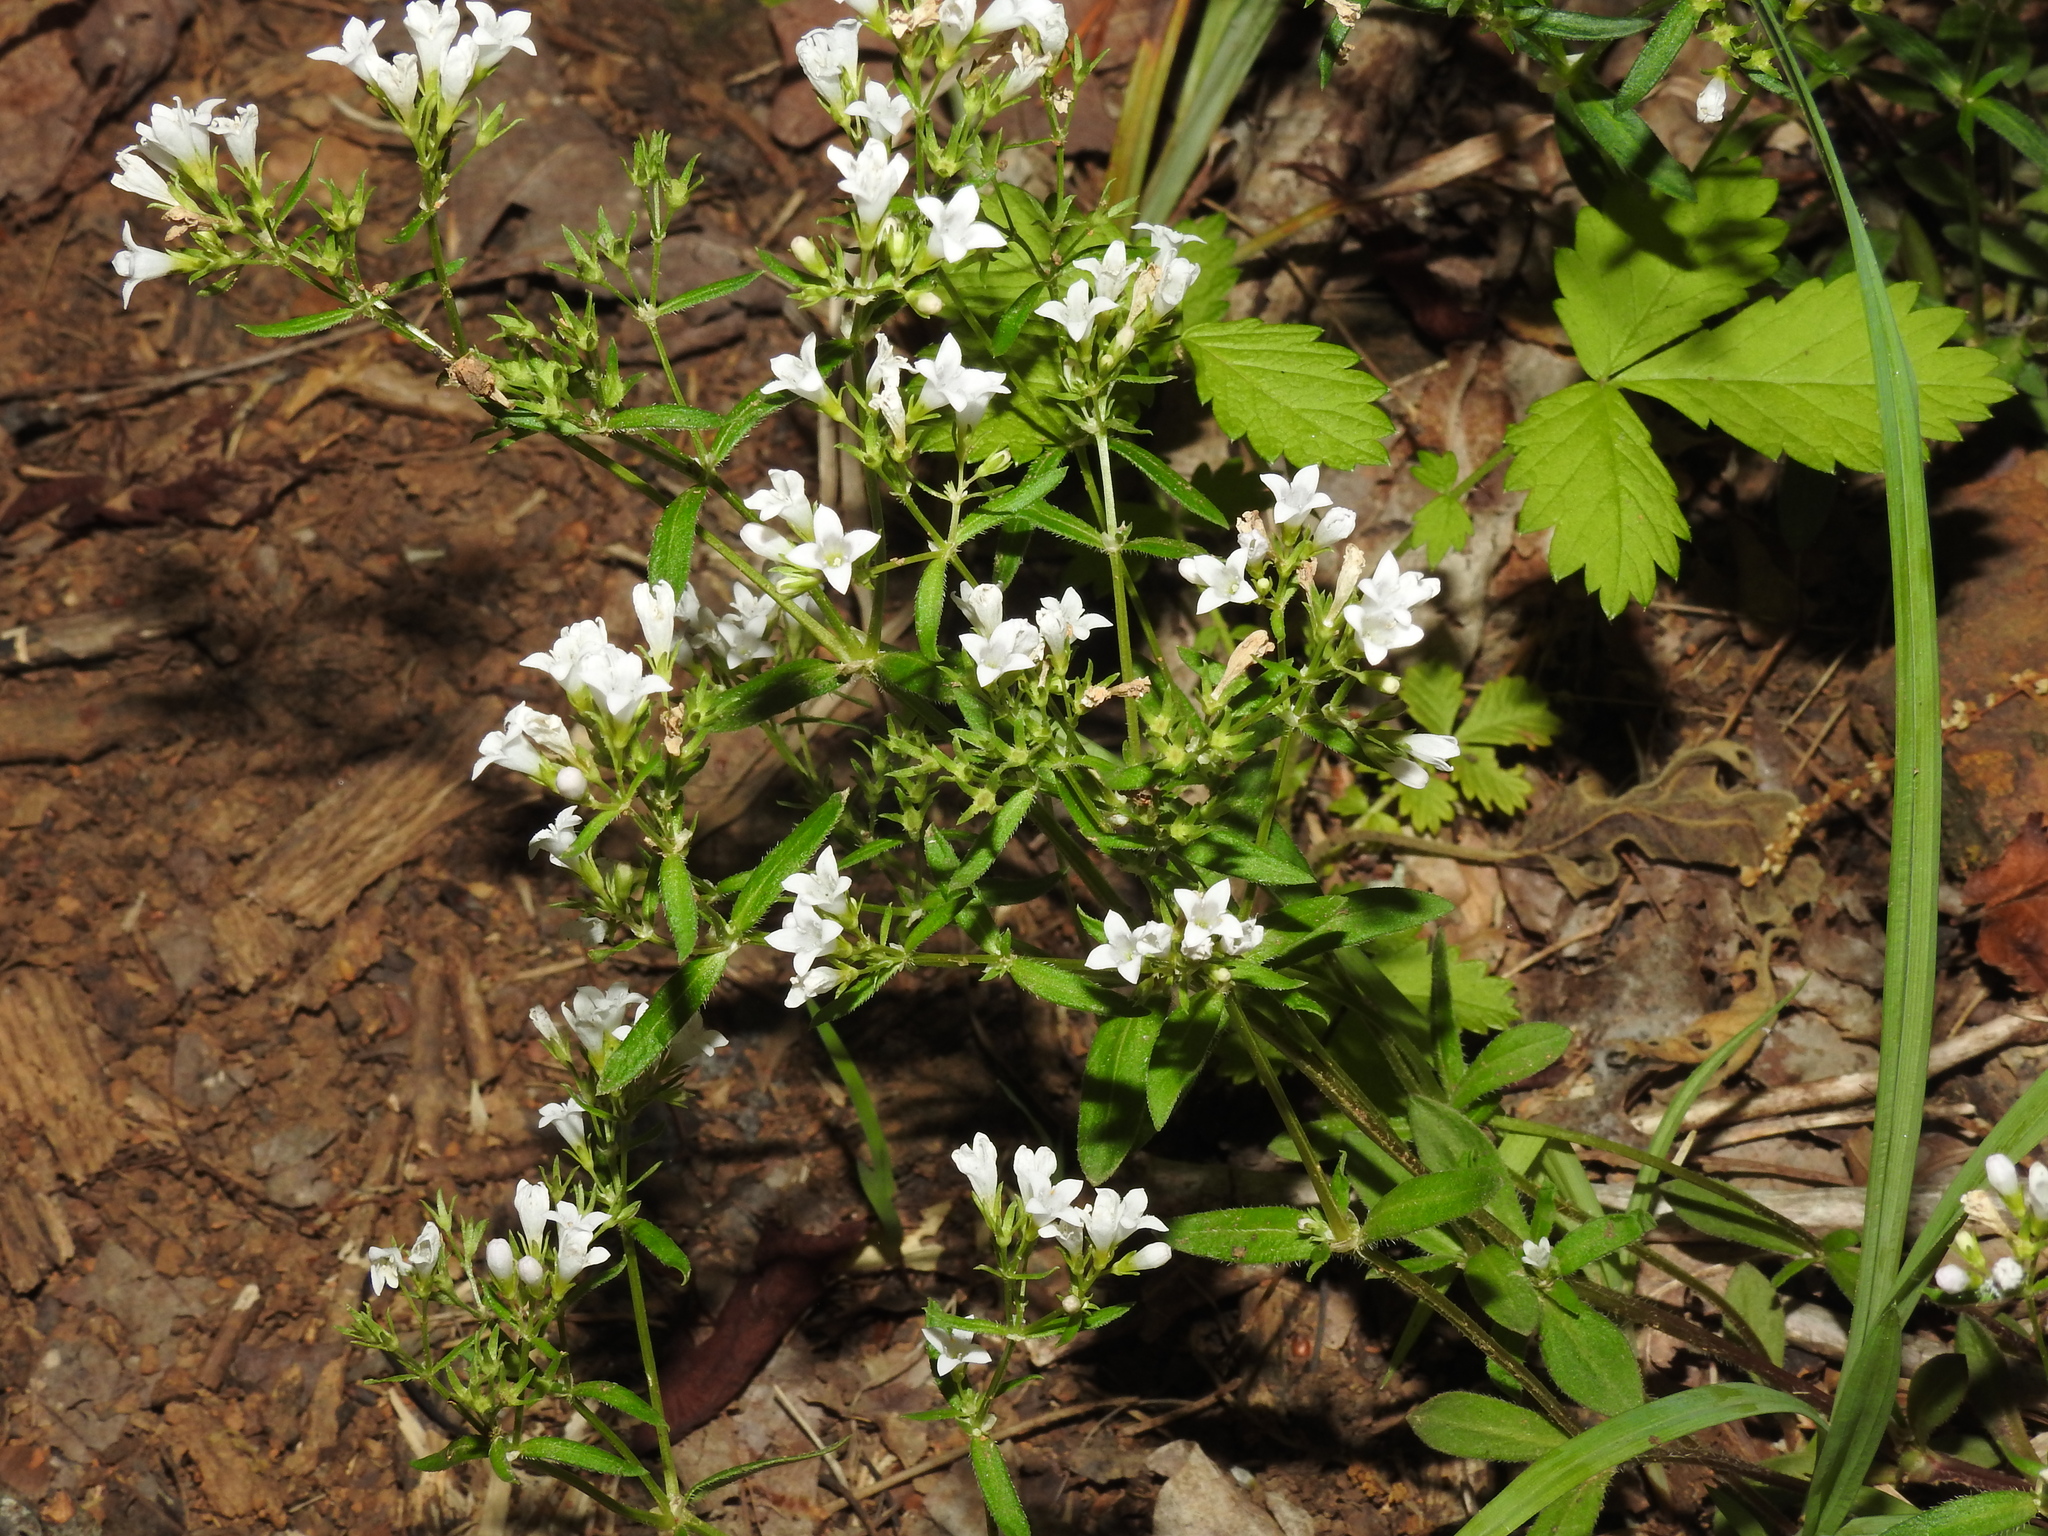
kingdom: Plantae
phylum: Tracheophyta
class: Magnoliopsida
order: Gentianales
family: Rubiaceae
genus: Houstonia
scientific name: Houstonia canadensis
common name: Fringed houstonia
